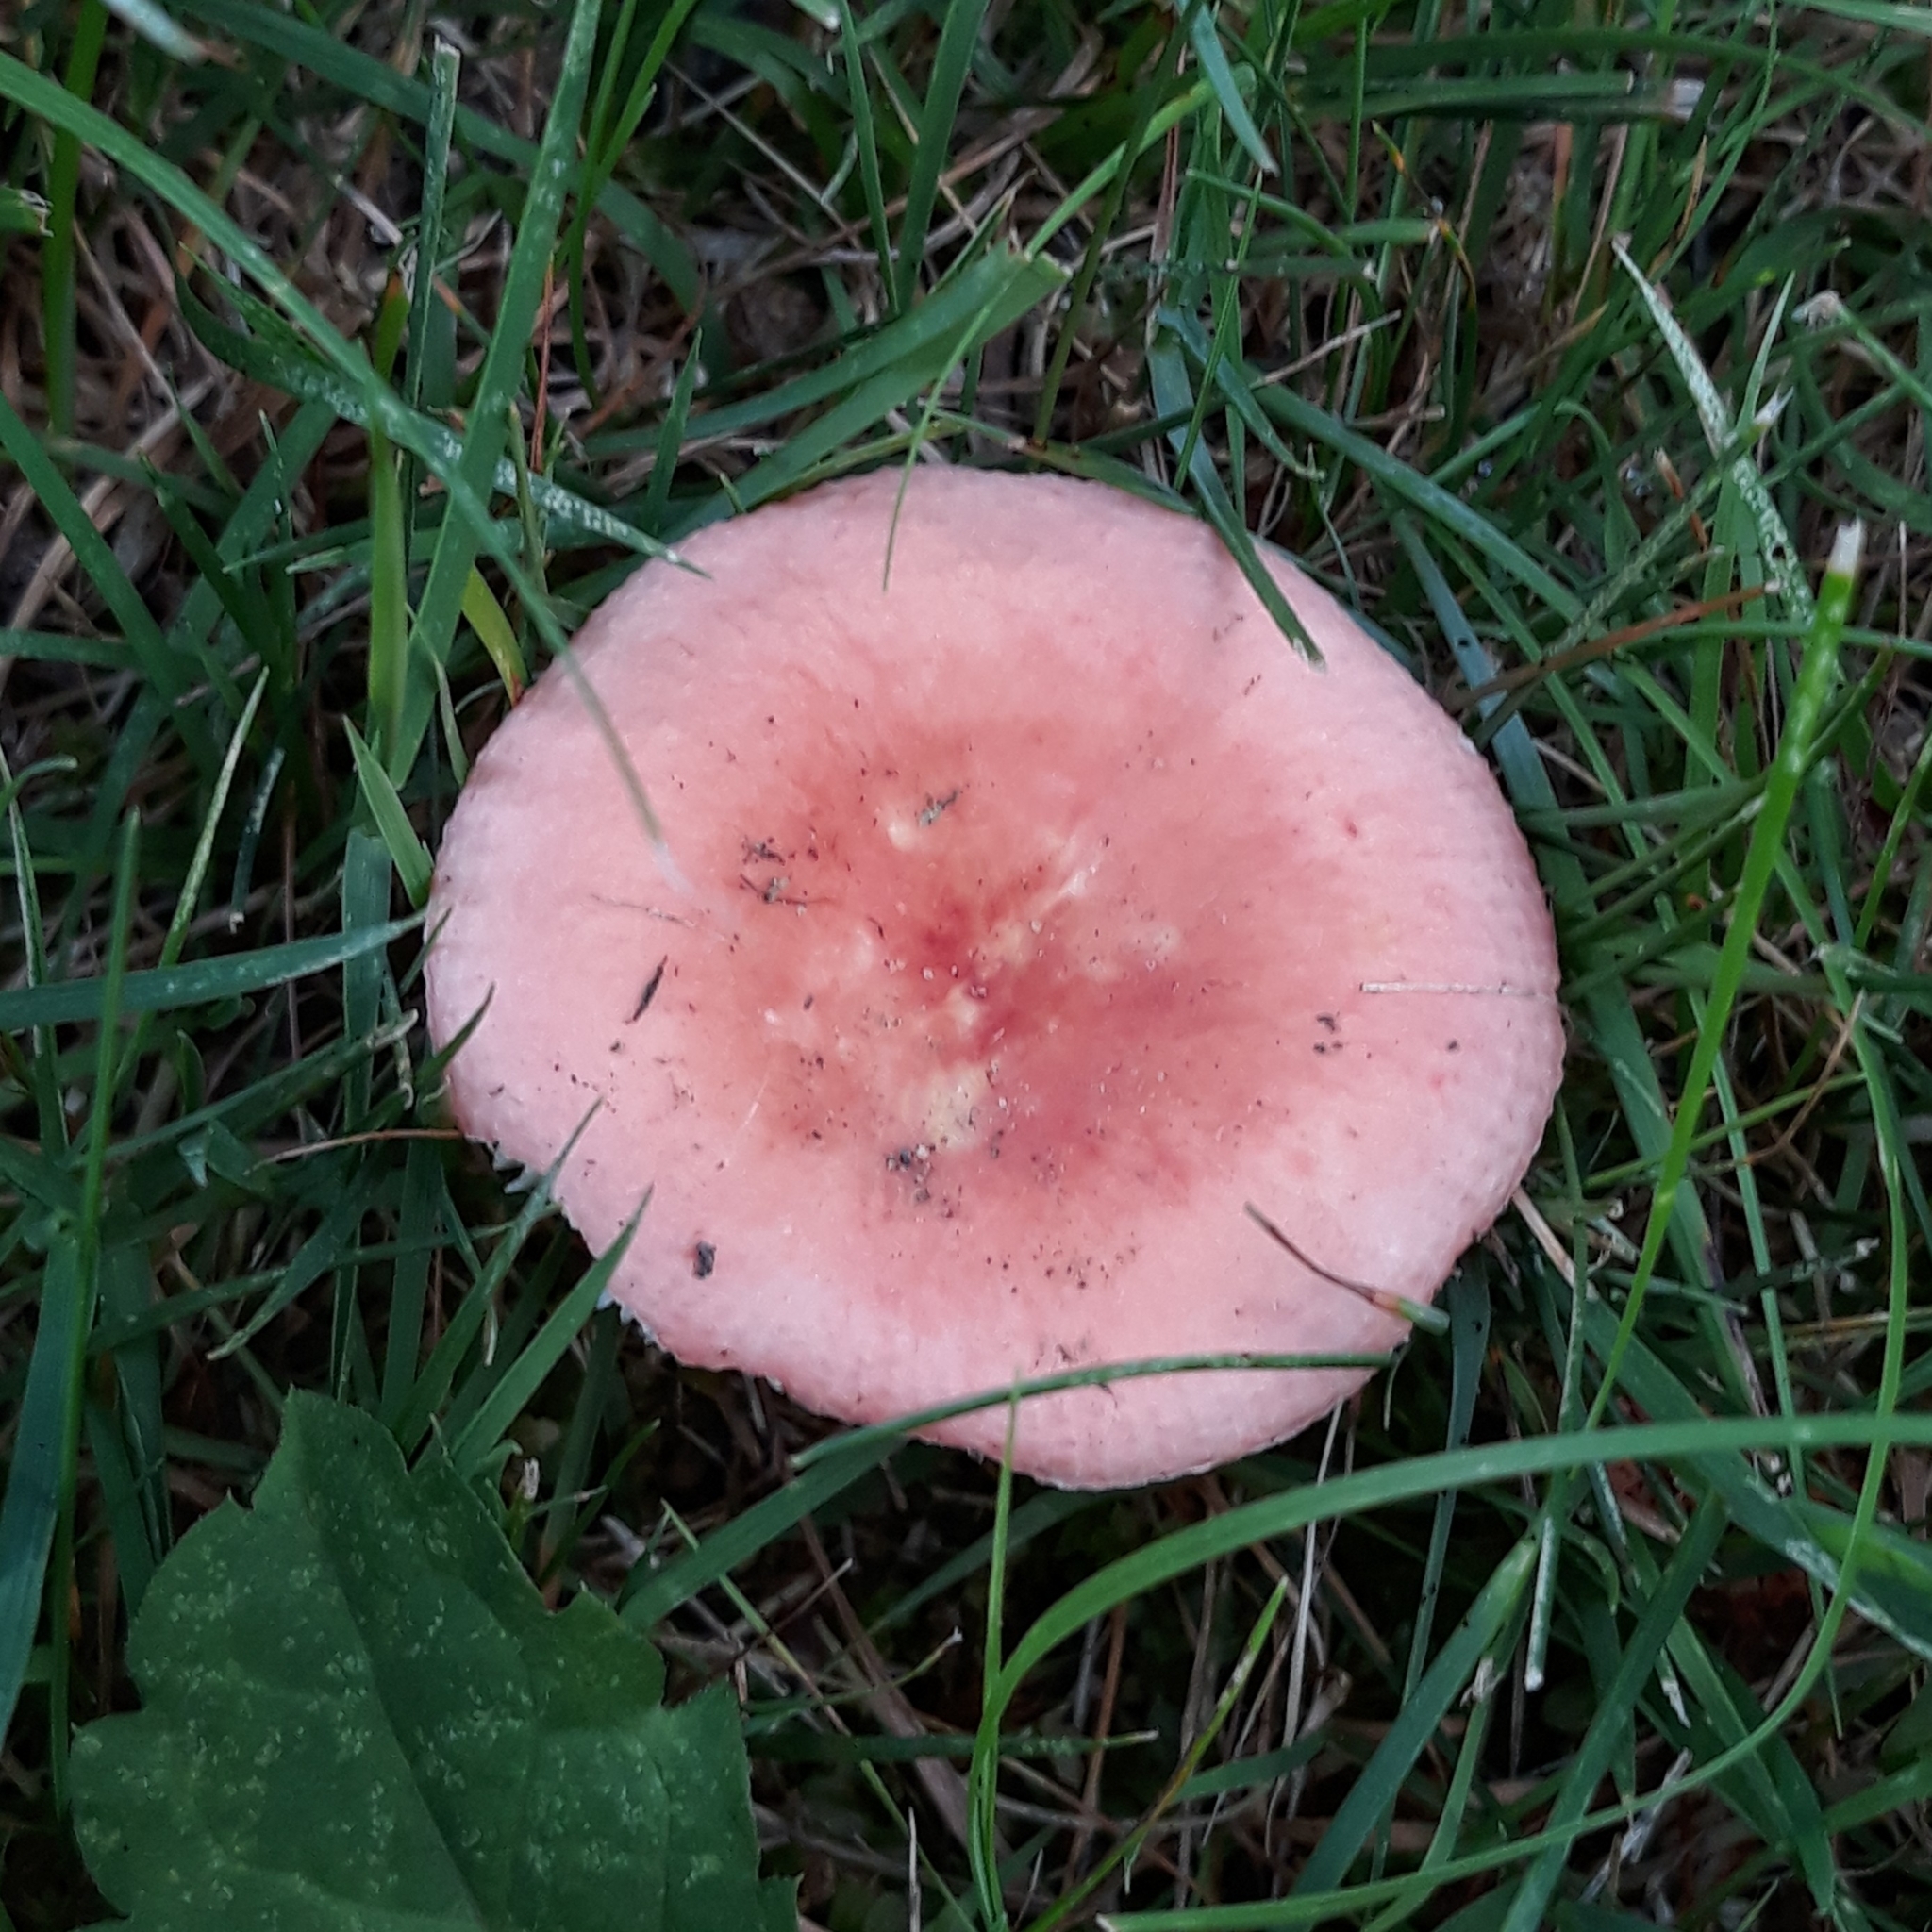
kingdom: Fungi
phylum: Basidiomycota
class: Agaricomycetes
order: Russulales
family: Russulaceae
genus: Russula
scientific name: Russula
